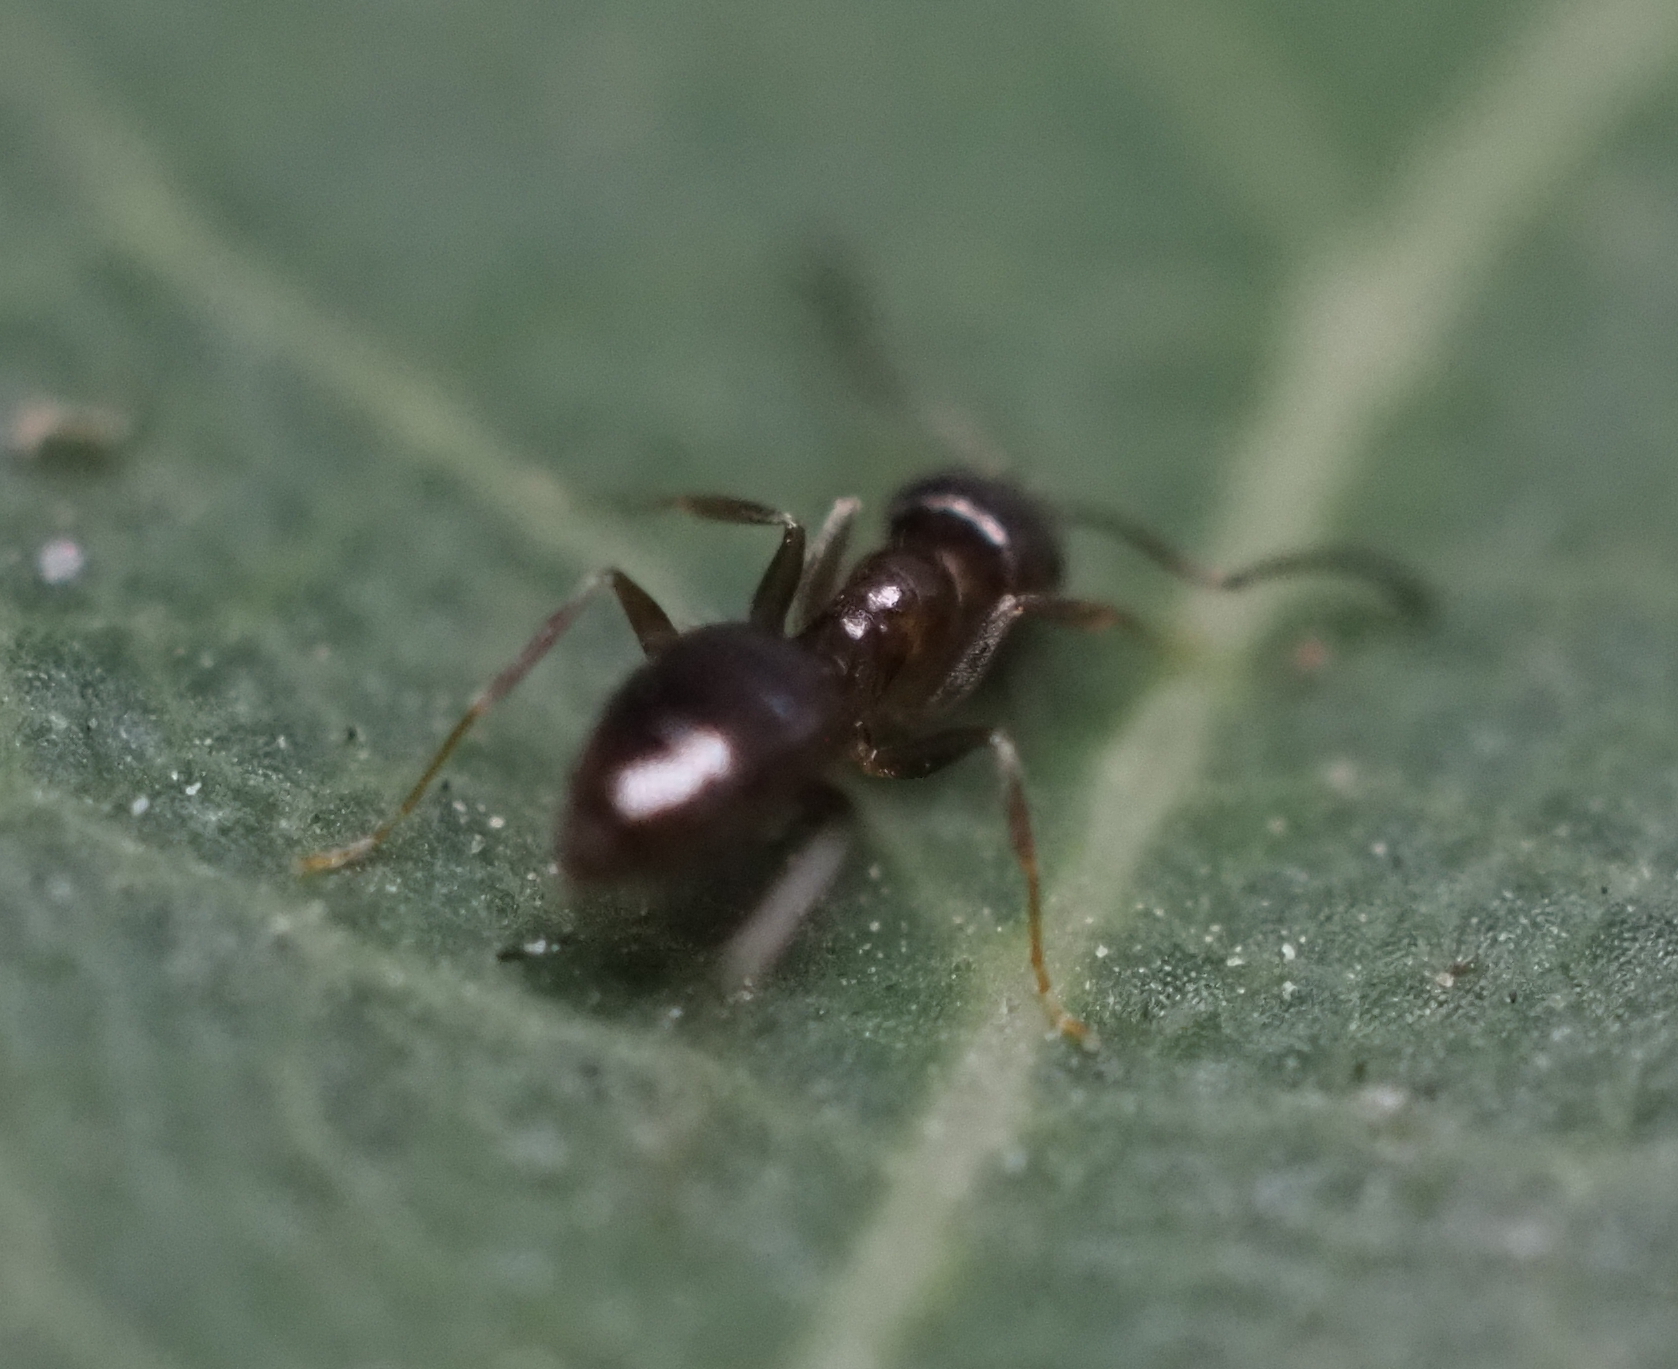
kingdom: Animalia
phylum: Arthropoda
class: Insecta
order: Hymenoptera
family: Formicidae
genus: Brachymyrmex
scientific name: Brachymyrmex patagonicus
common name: Dark rover ant
